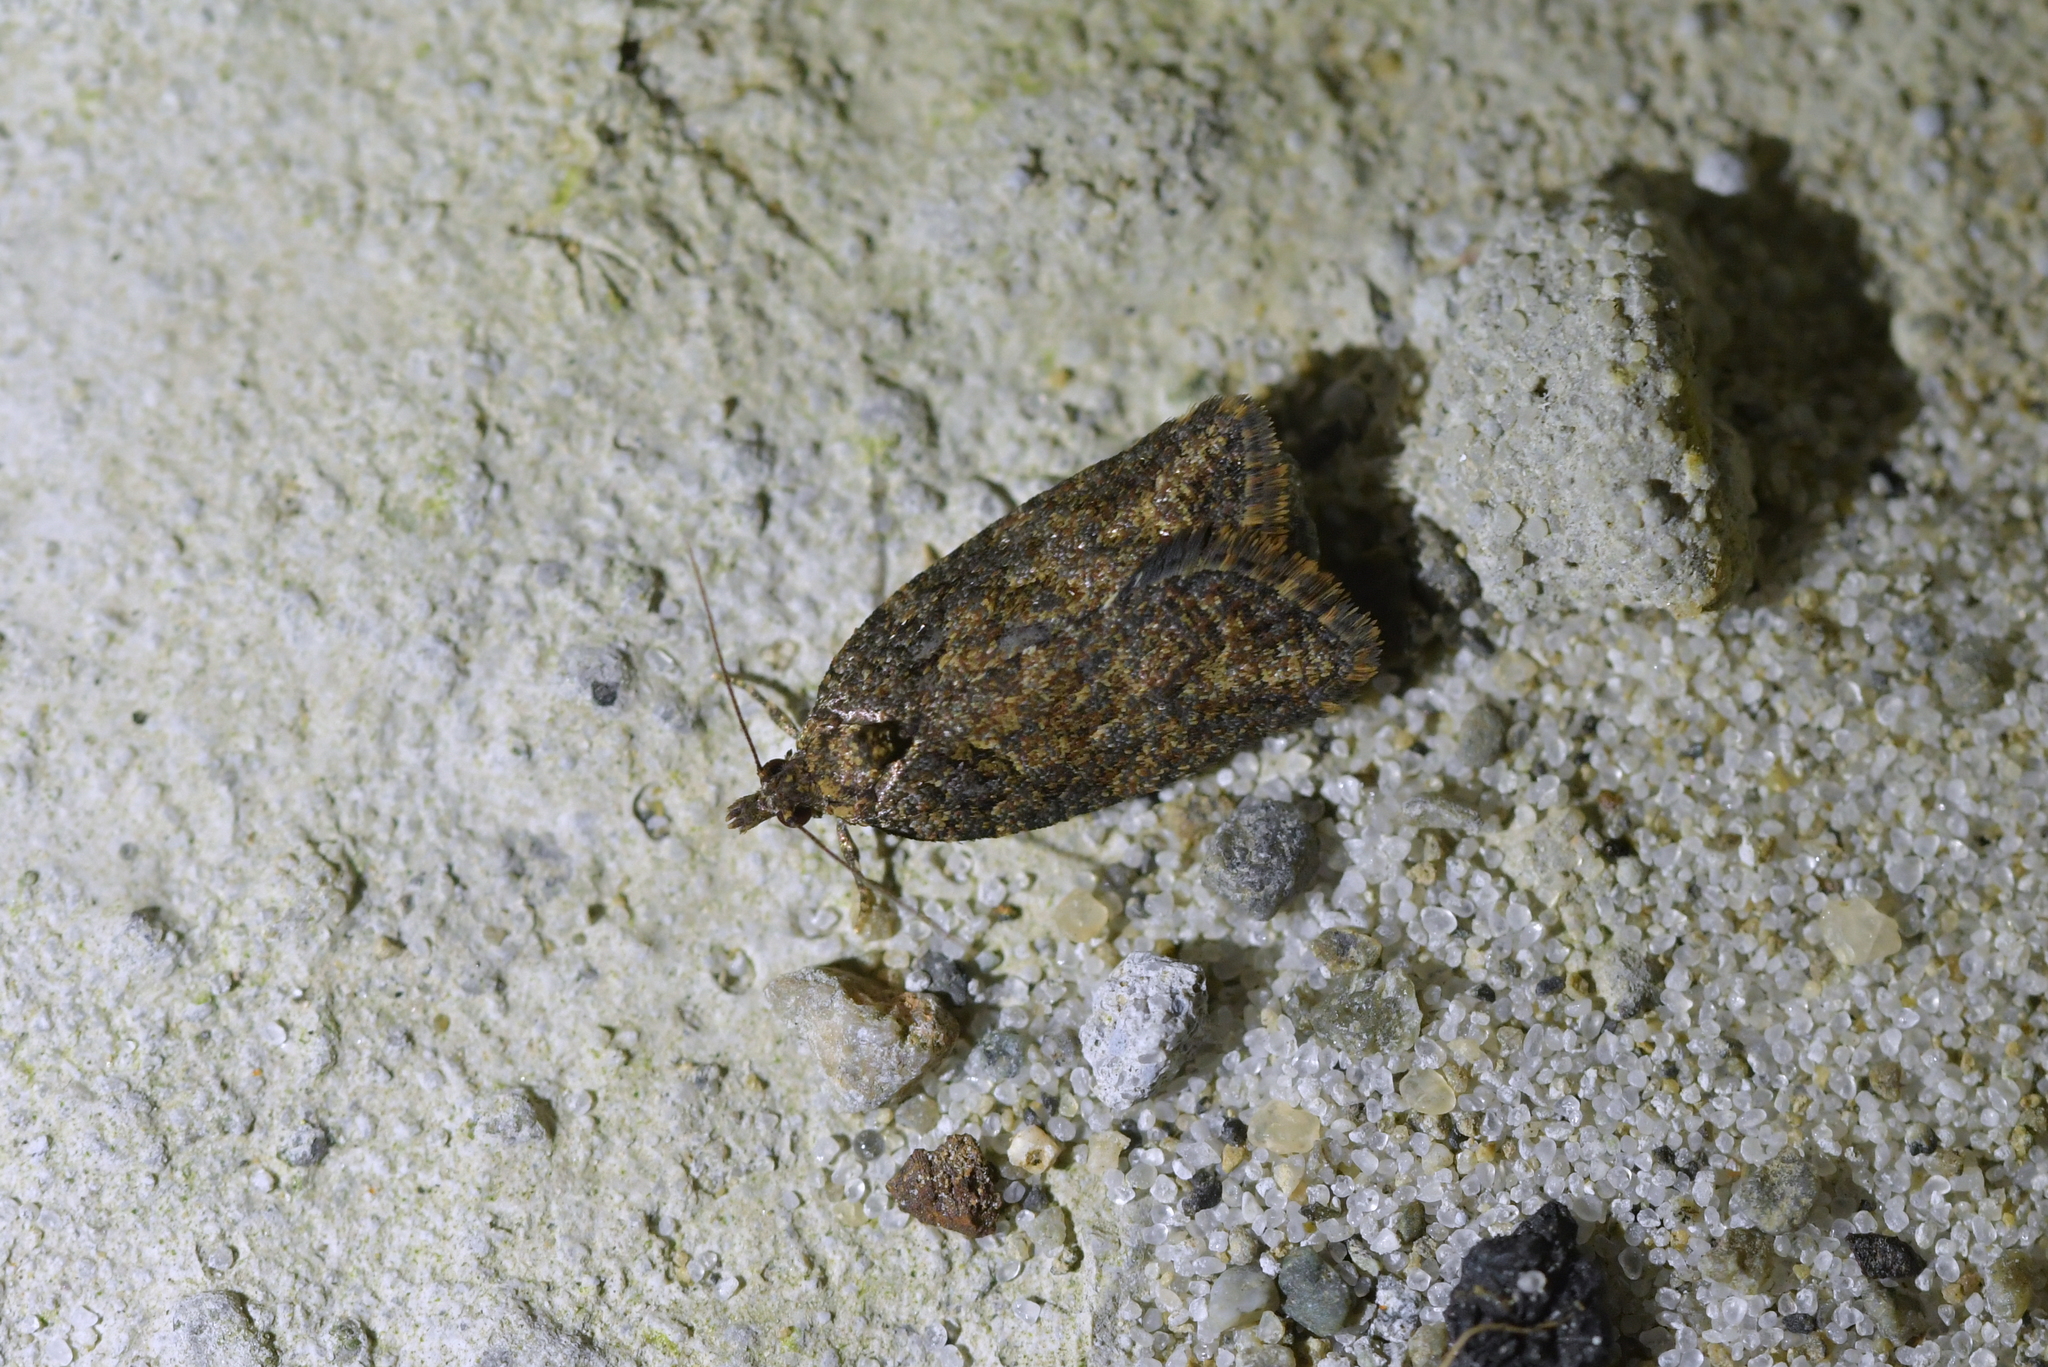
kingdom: Animalia
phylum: Arthropoda
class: Insecta
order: Lepidoptera
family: Tortricidae
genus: Capua
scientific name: Capua intractana
